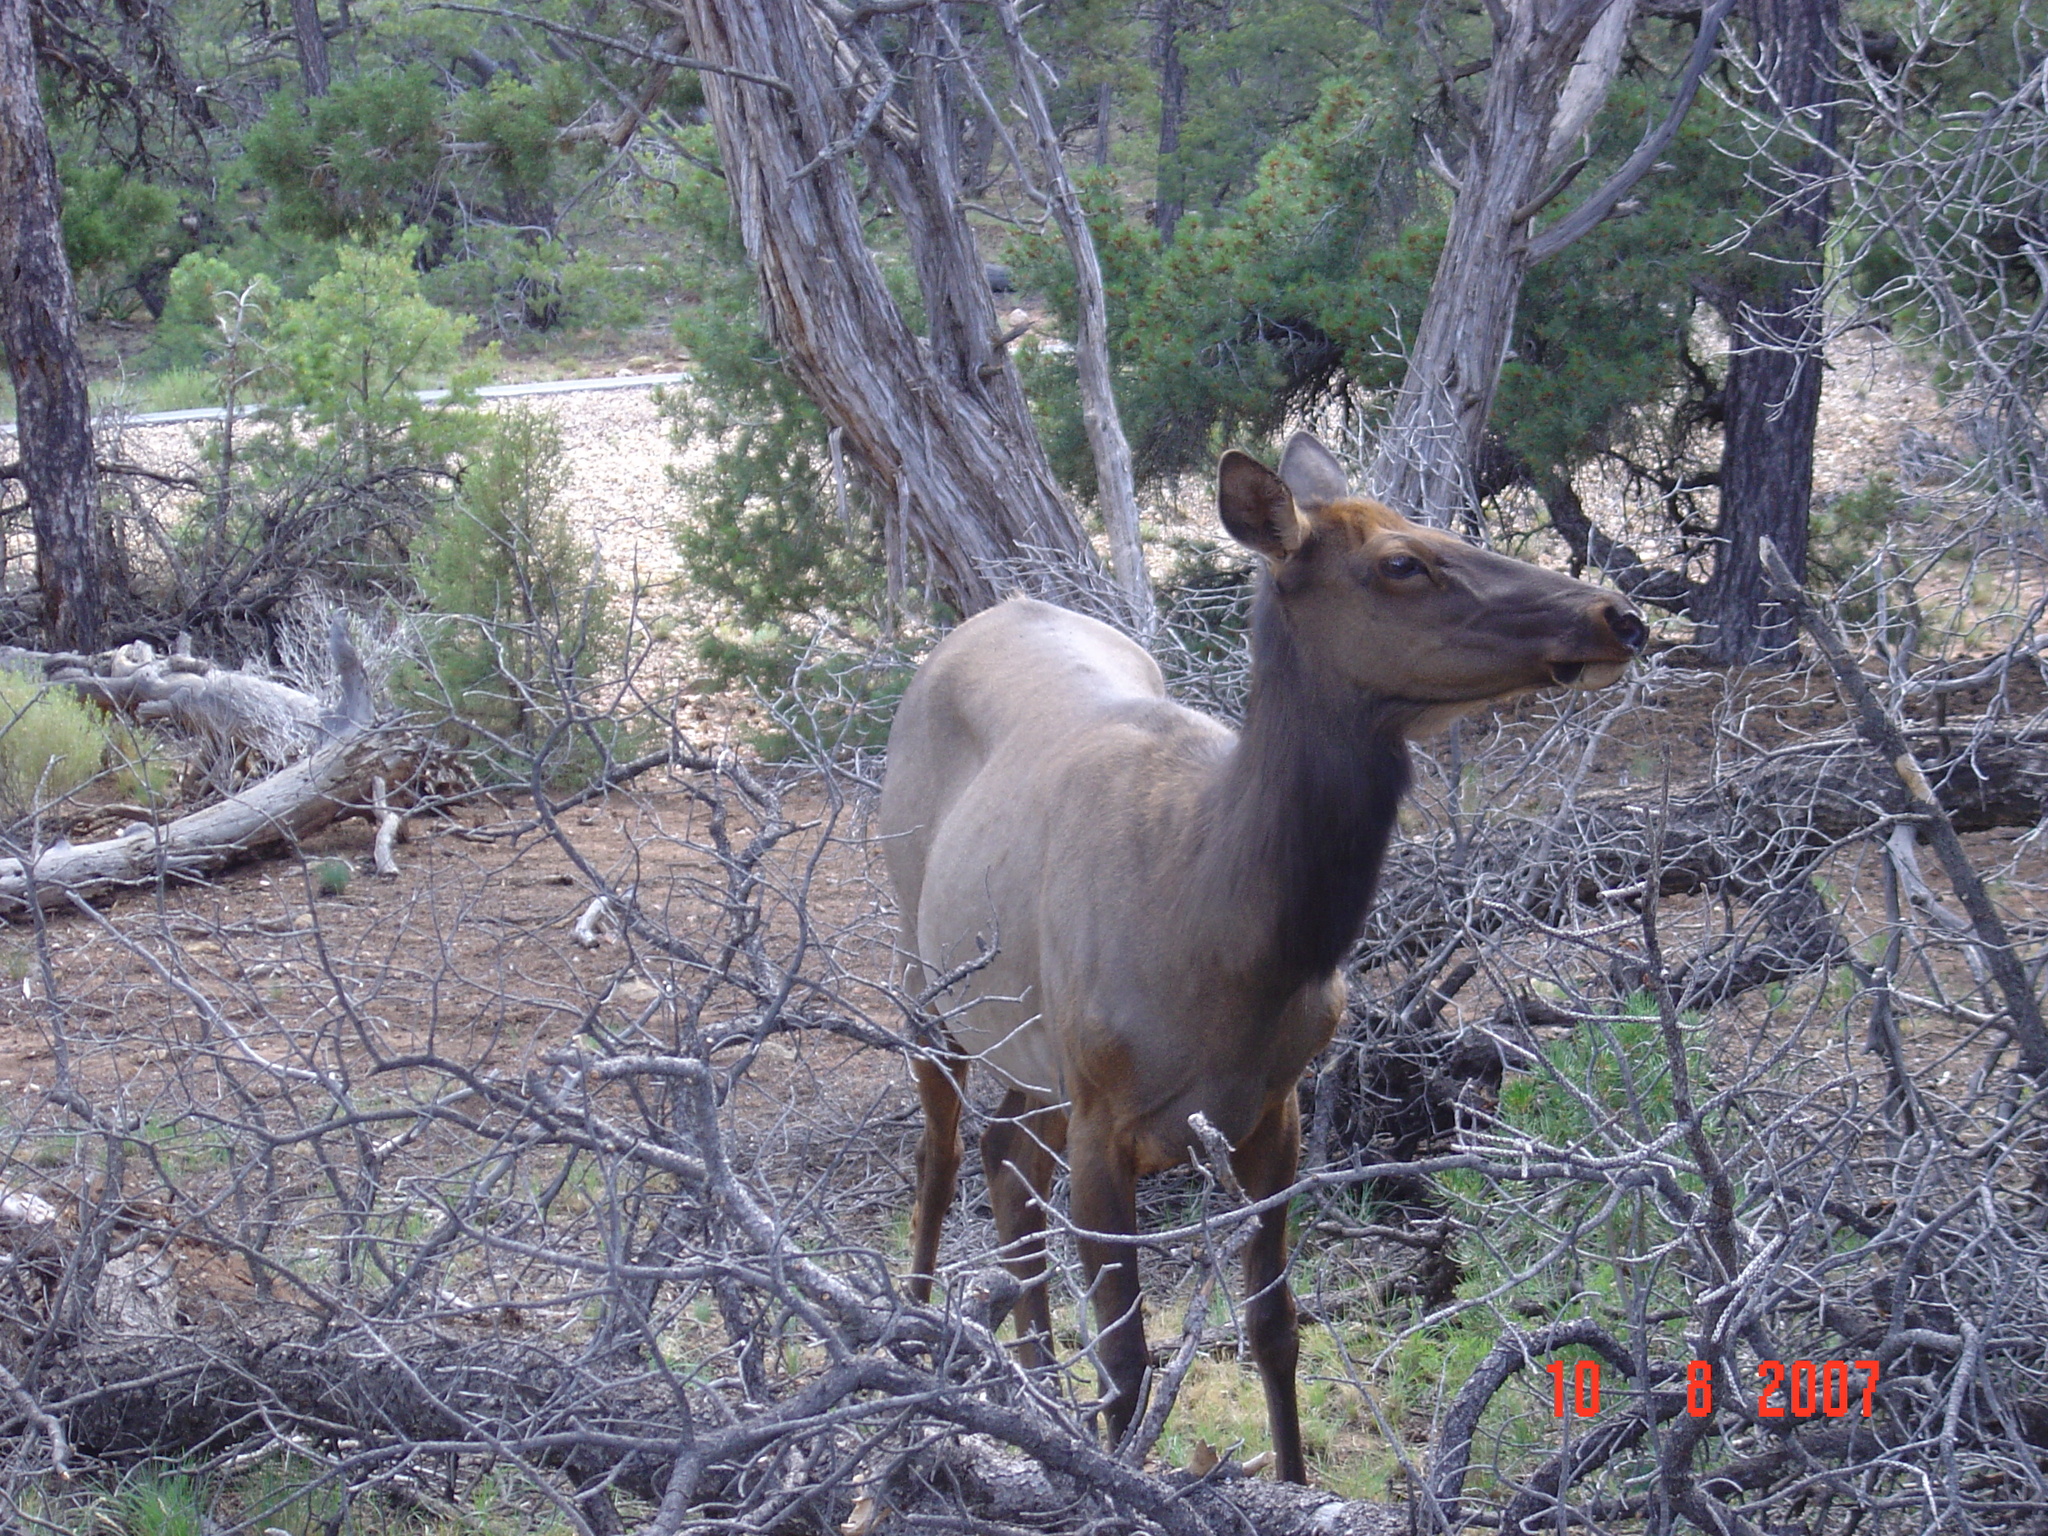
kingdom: Animalia
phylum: Chordata
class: Mammalia
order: Artiodactyla
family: Cervidae
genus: Cervus
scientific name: Cervus elaphus
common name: Red deer
